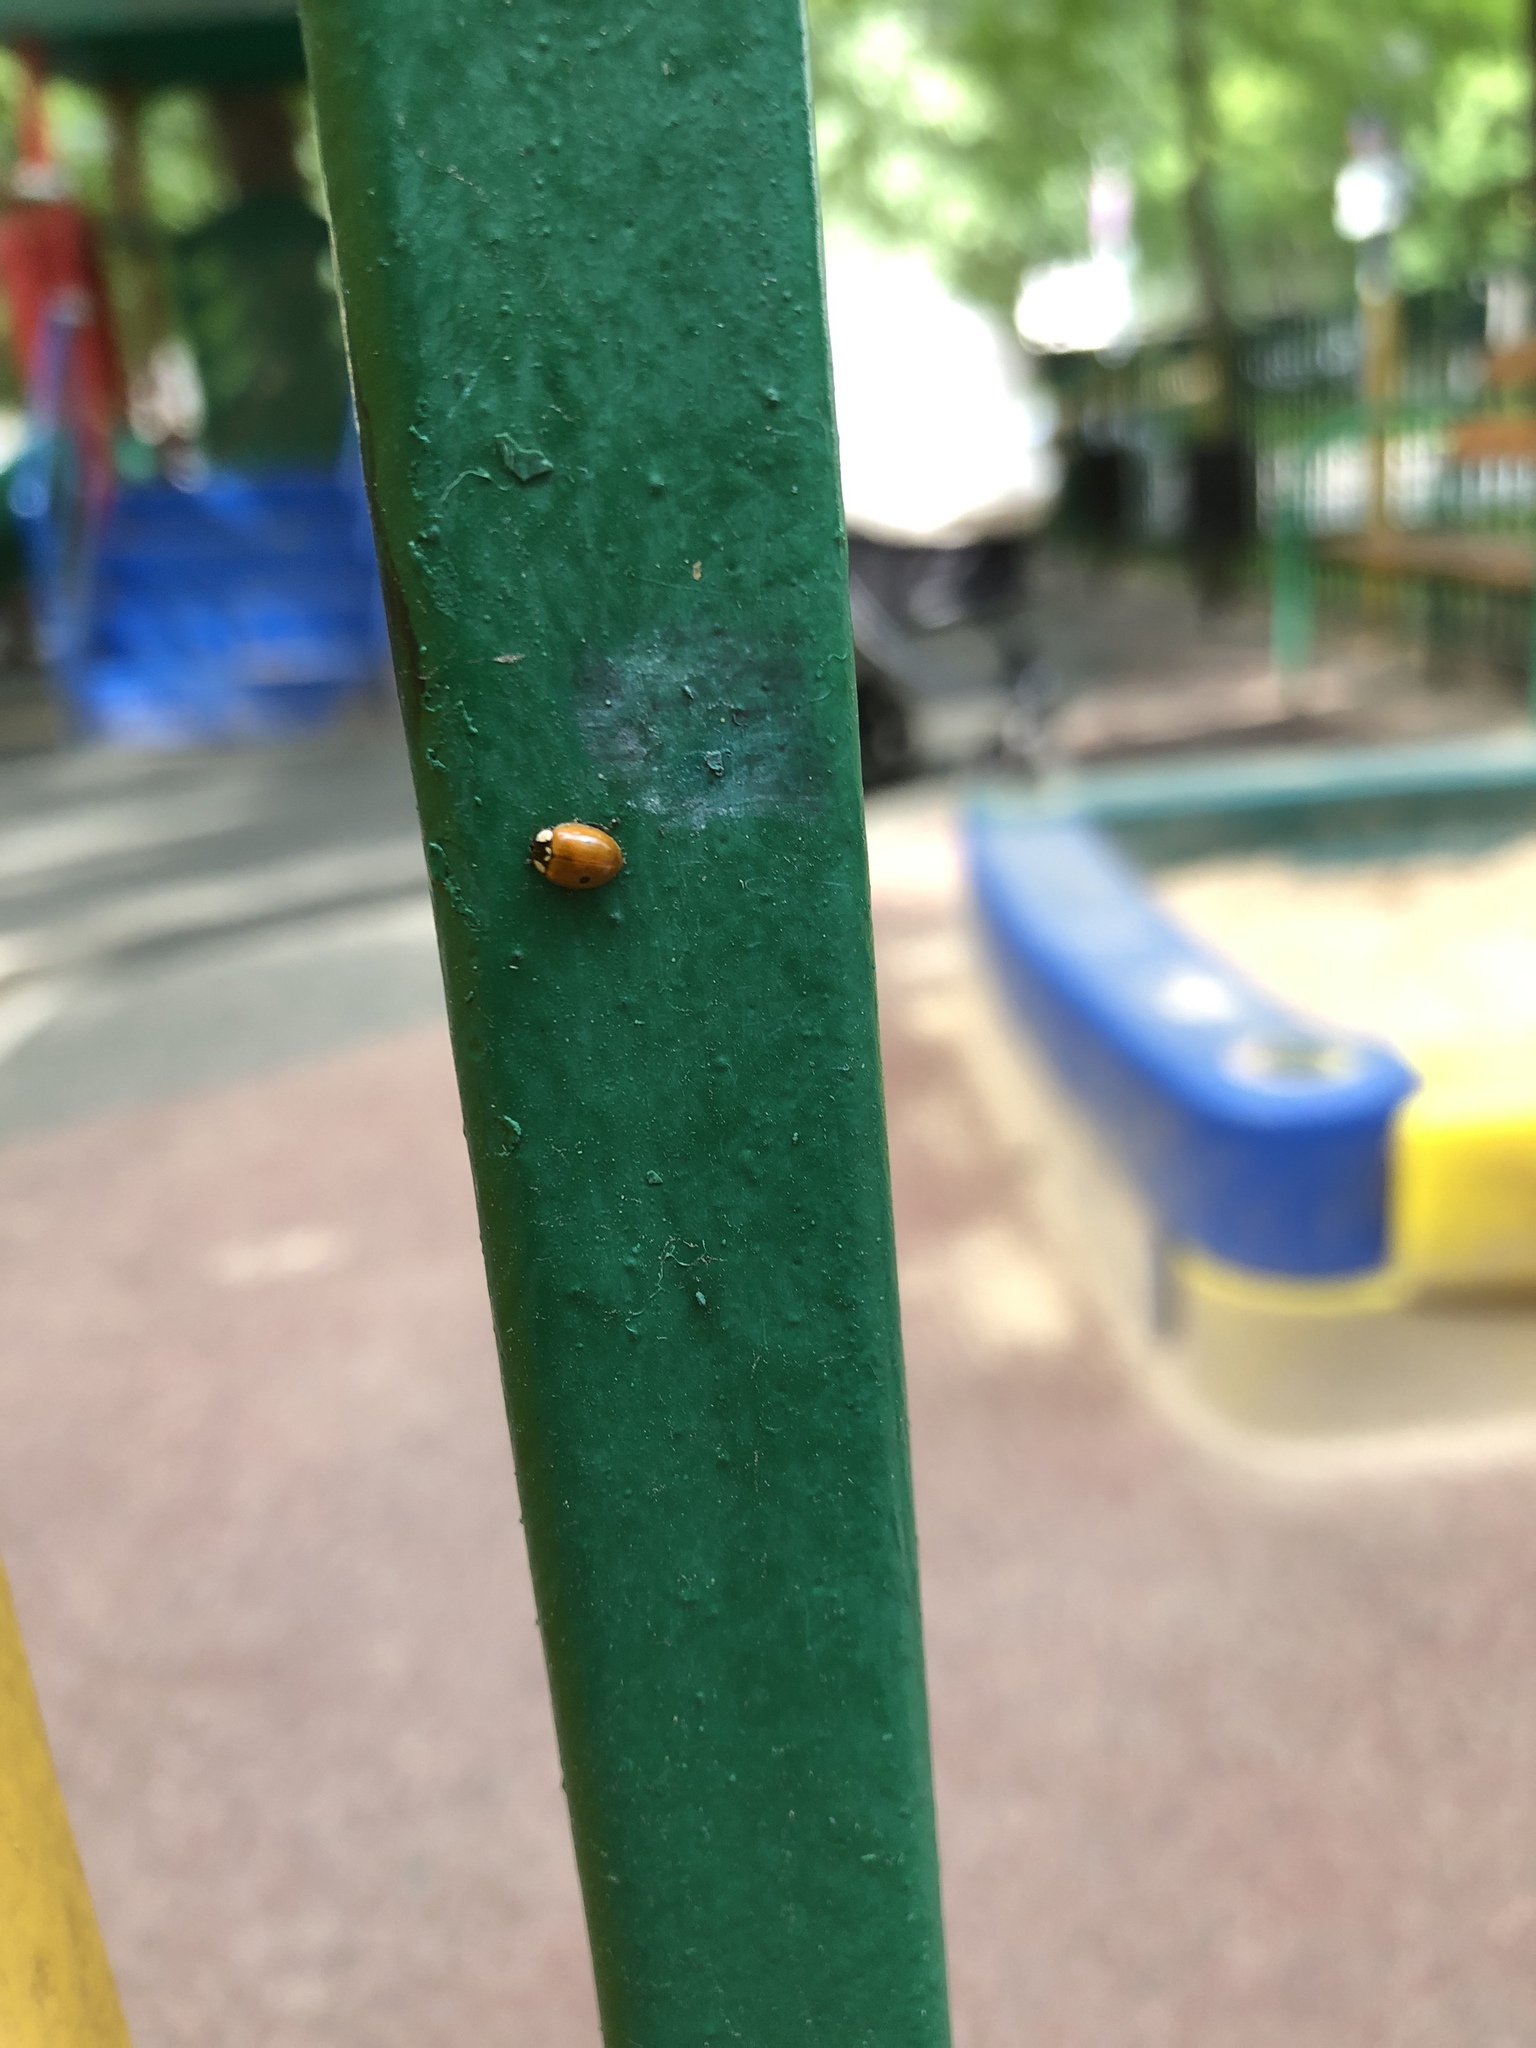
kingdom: Animalia
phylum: Arthropoda
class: Insecta
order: Coleoptera
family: Coccinellidae
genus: Adalia
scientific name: Adalia bipunctata
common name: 2-spot ladybird
